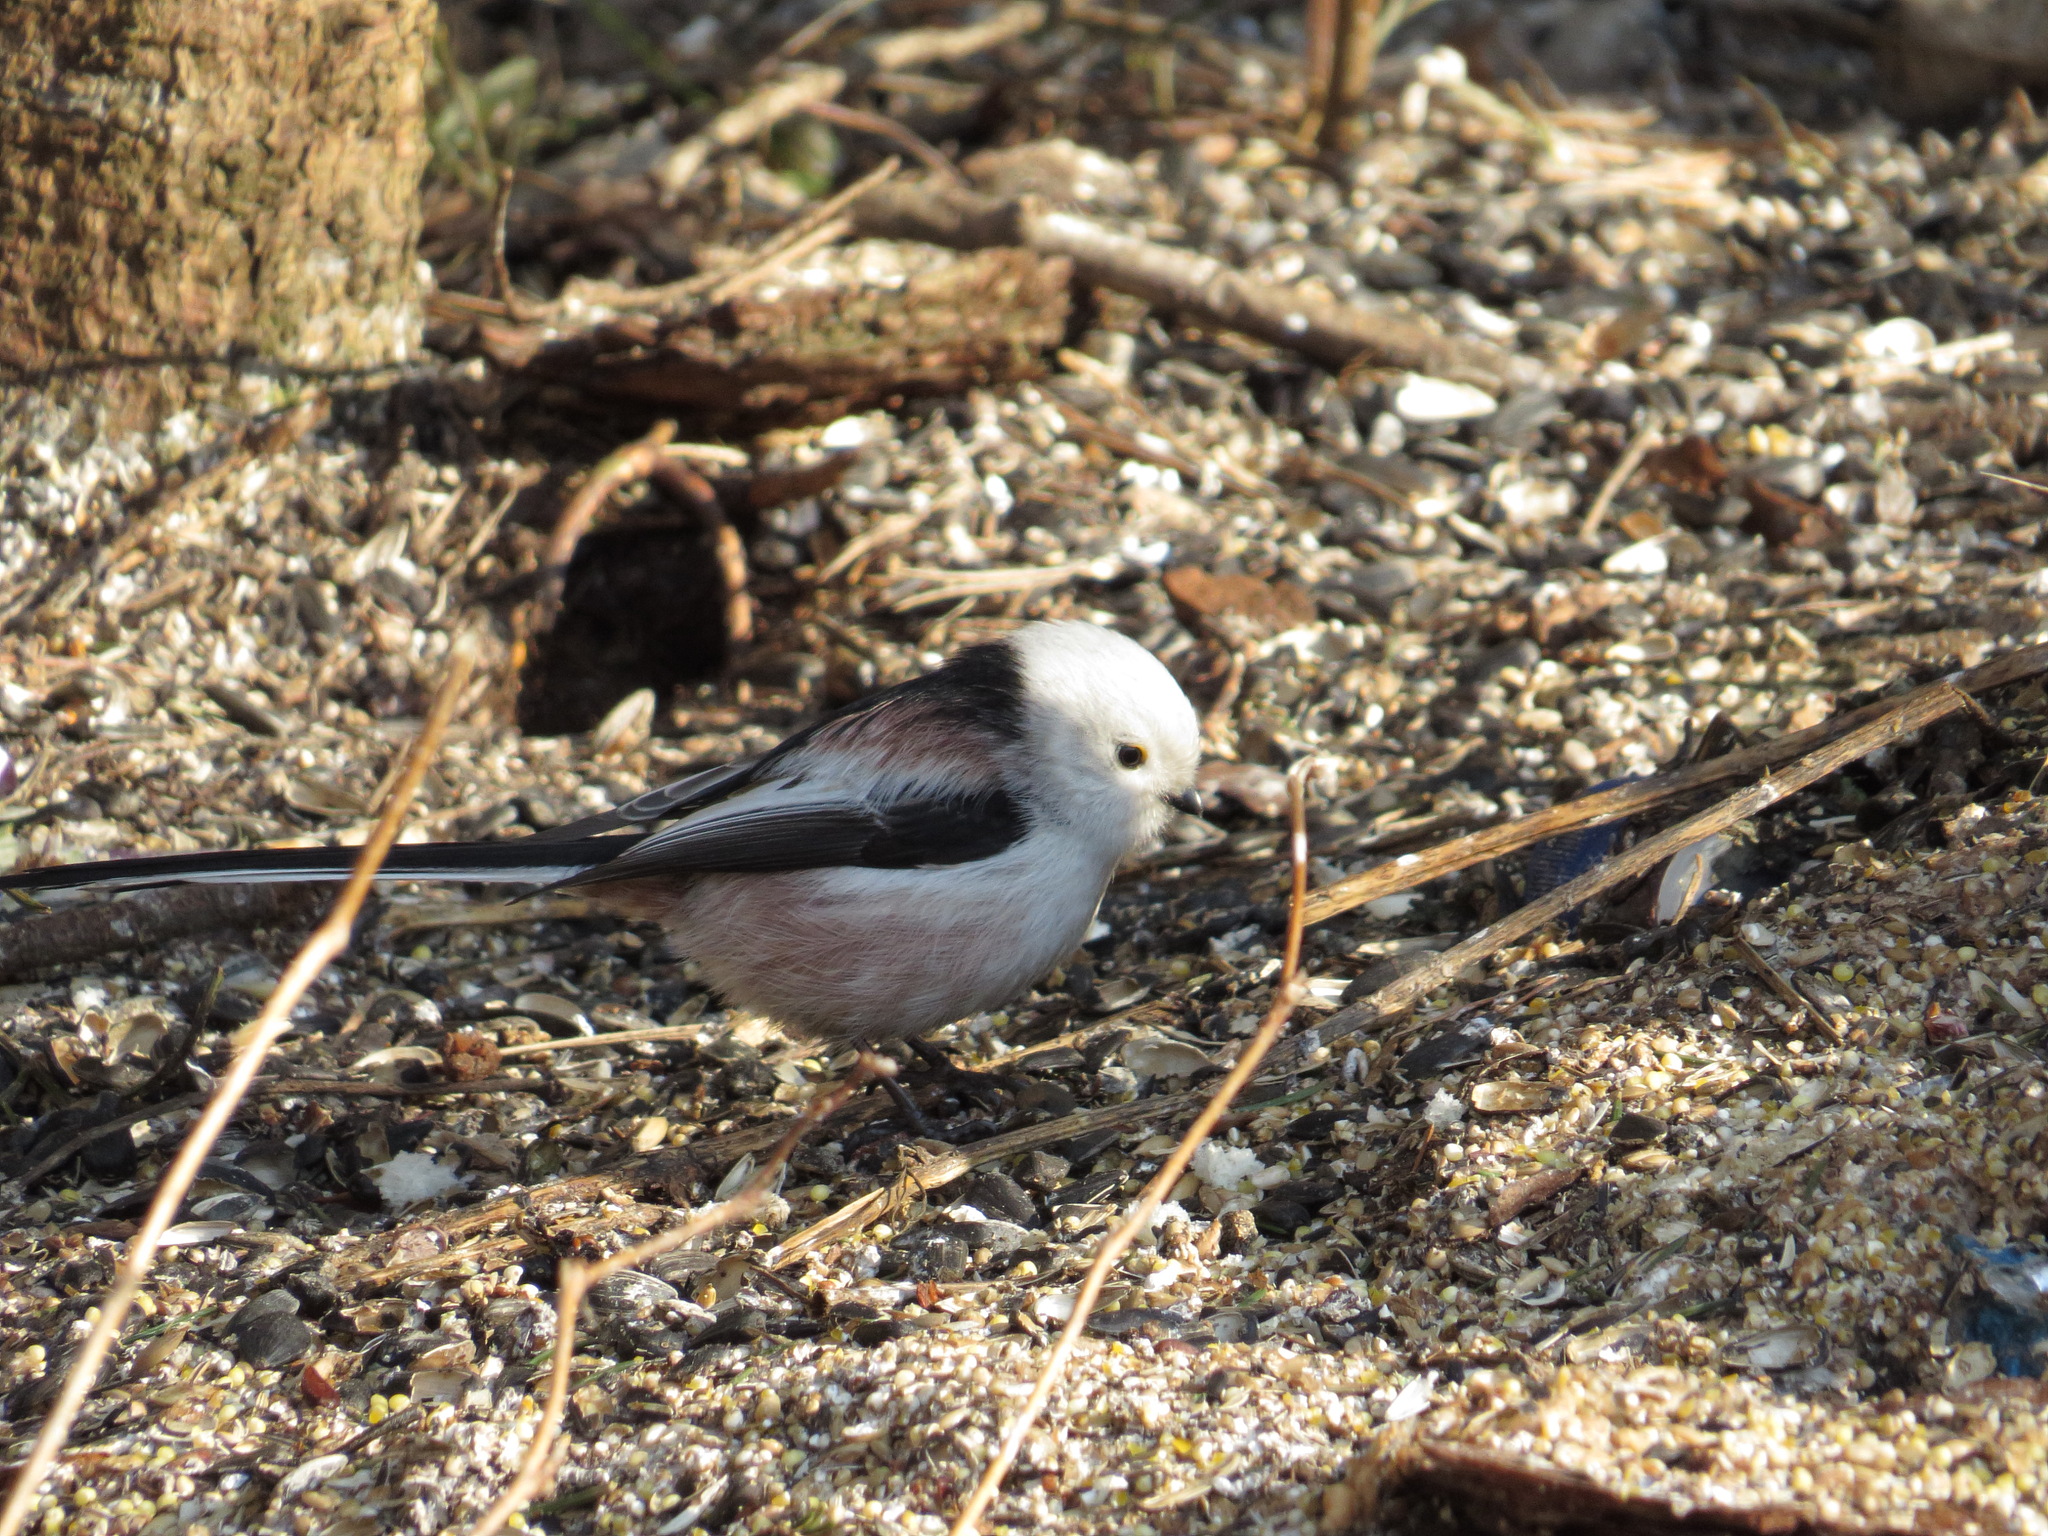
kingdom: Animalia
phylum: Chordata
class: Aves
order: Passeriformes
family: Aegithalidae
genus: Aegithalos
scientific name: Aegithalos caudatus
